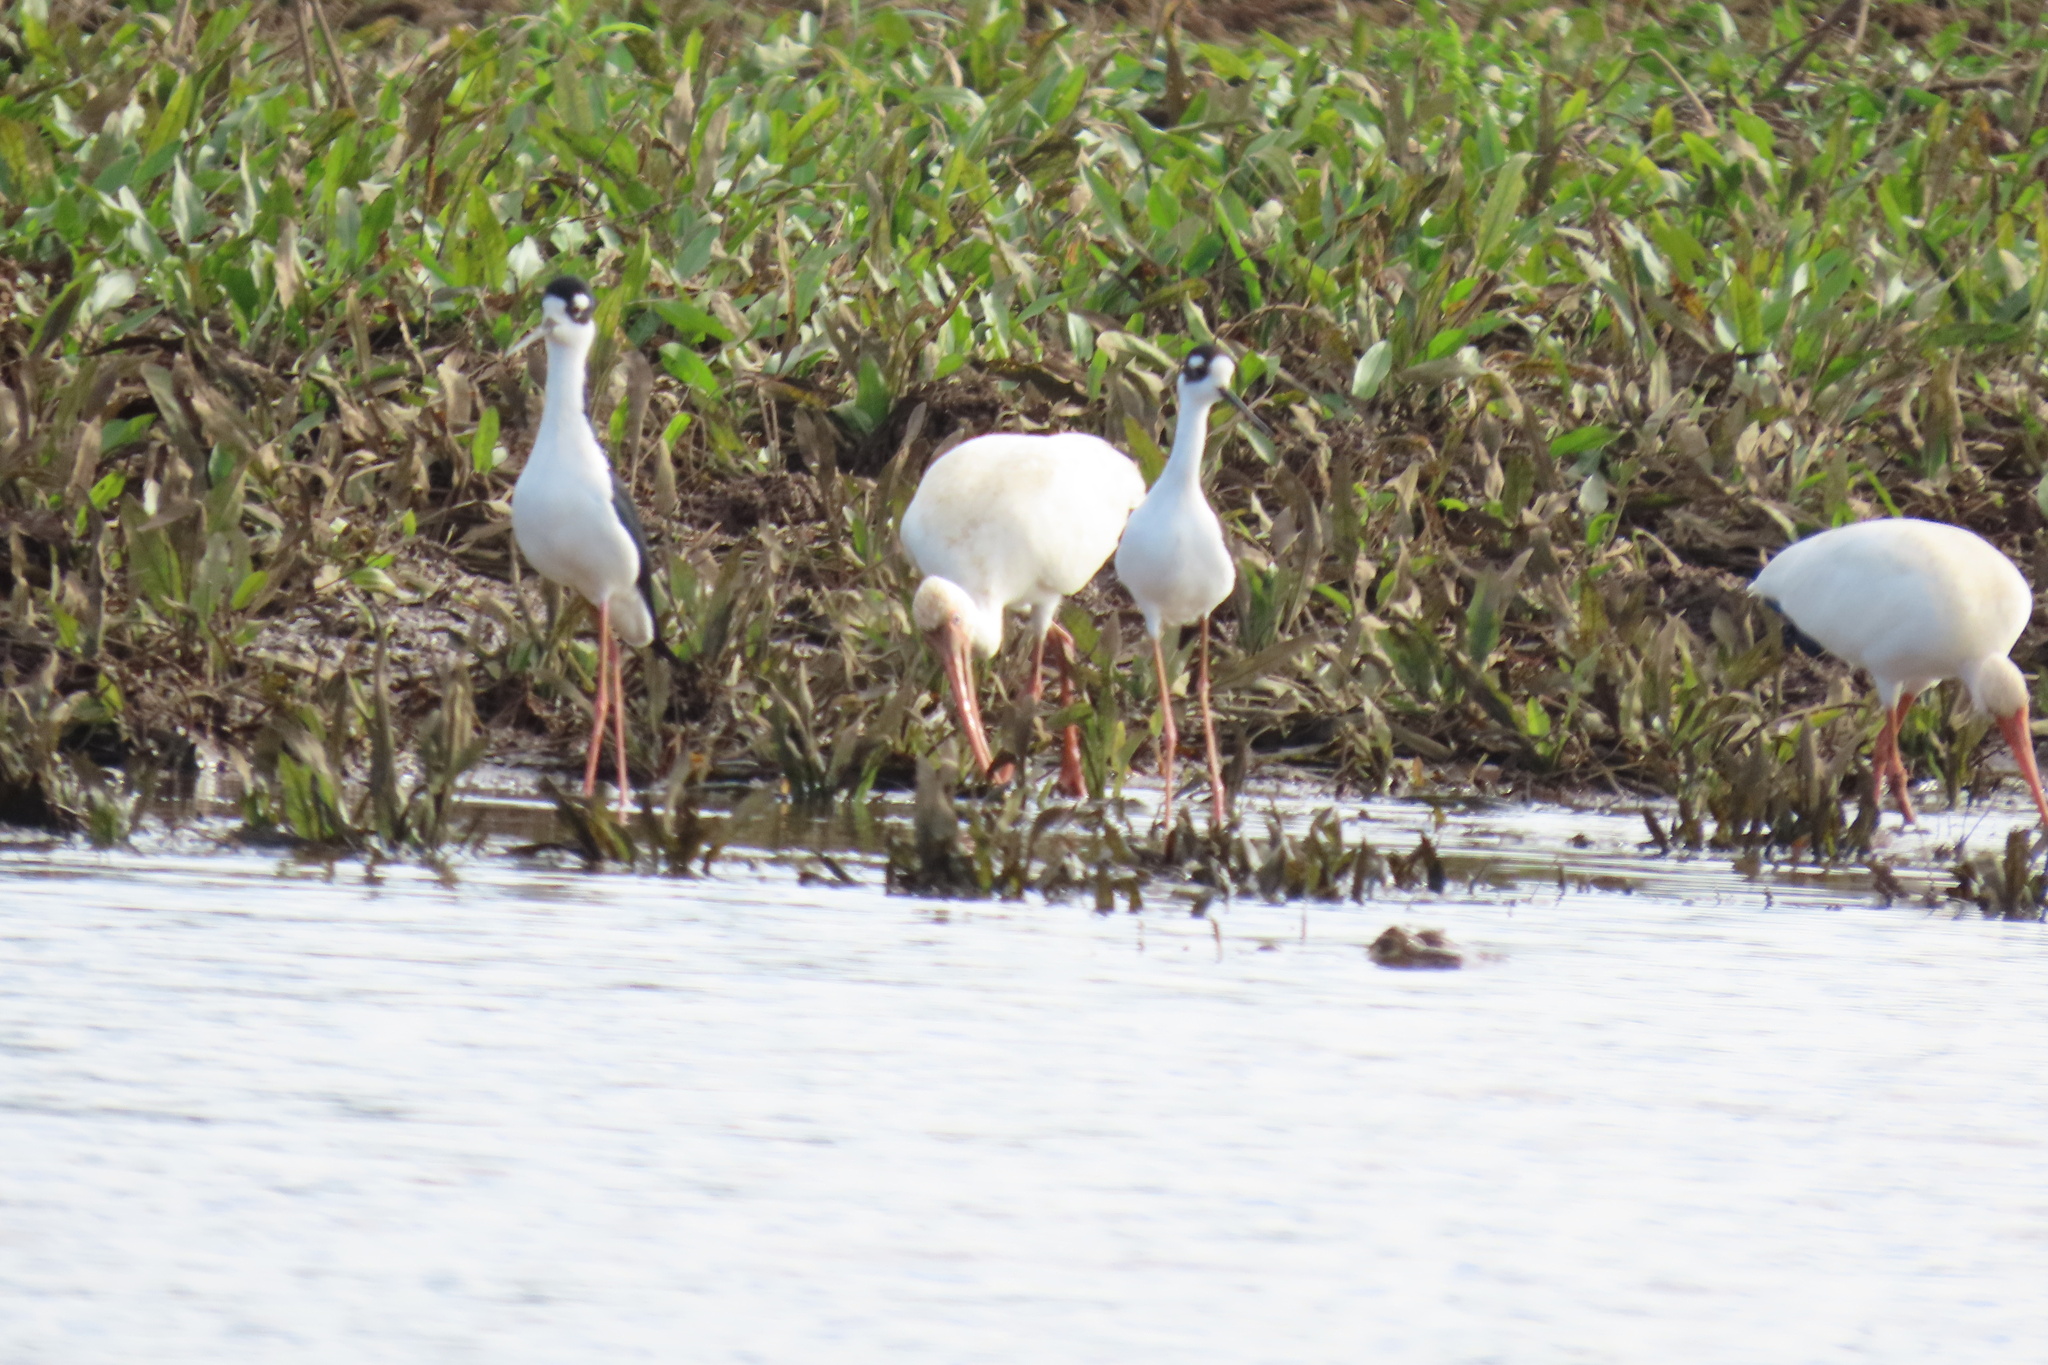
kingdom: Animalia
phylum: Chordata
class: Aves
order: Charadriiformes
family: Recurvirostridae
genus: Himantopus
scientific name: Himantopus mexicanus
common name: Black-necked stilt
